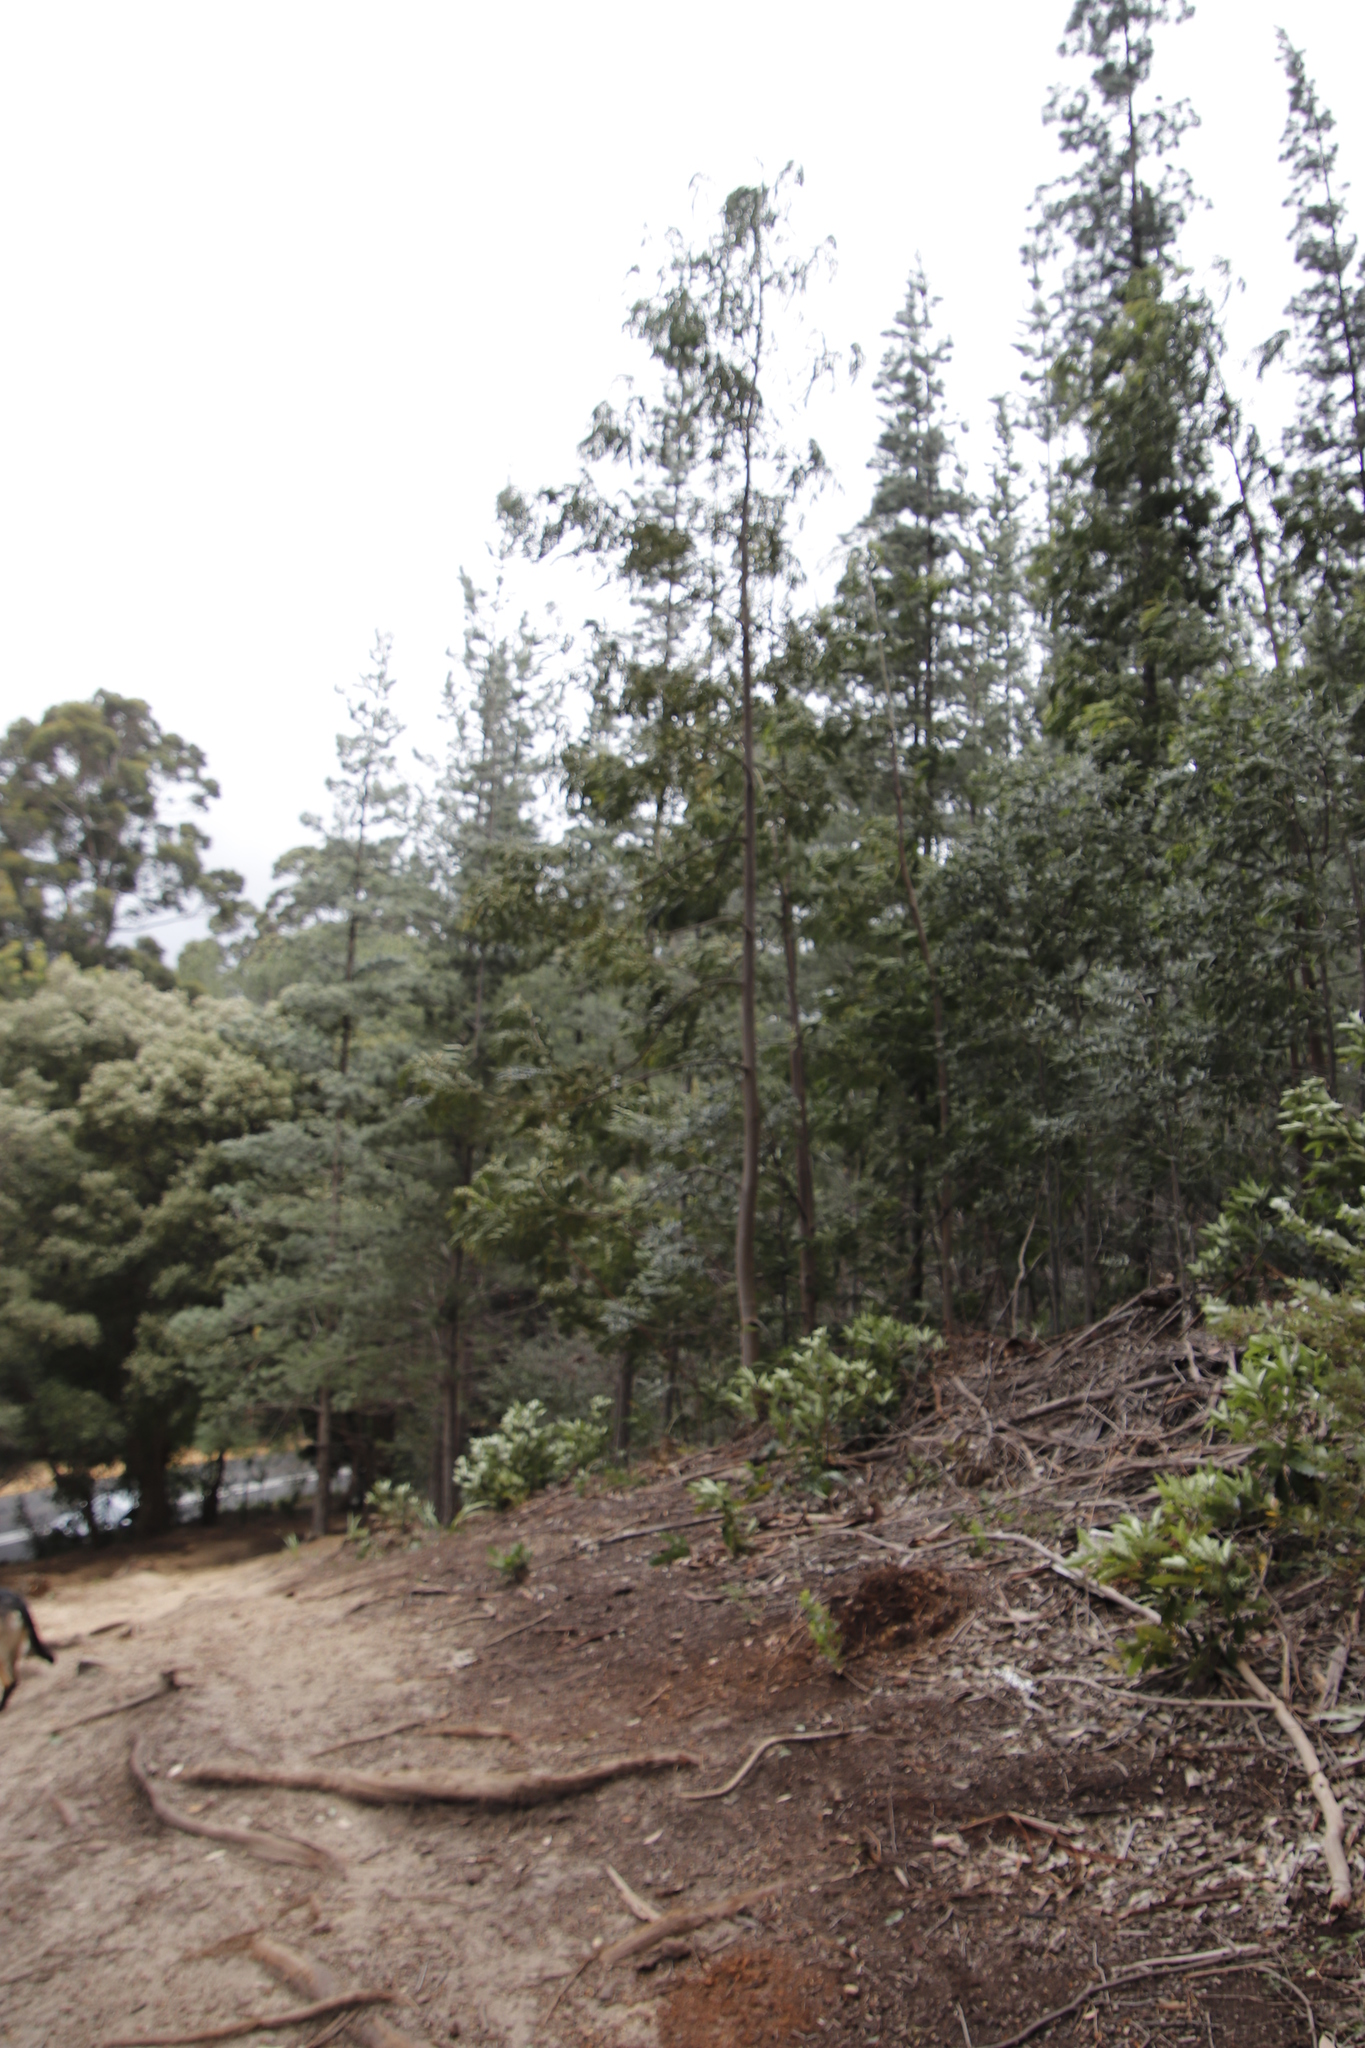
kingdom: Plantae
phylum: Tracheophyta
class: Magnoliopsida
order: Fabales
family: Fabaceae
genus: Acacia
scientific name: Acacia melanoxylon
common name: Blackwood
